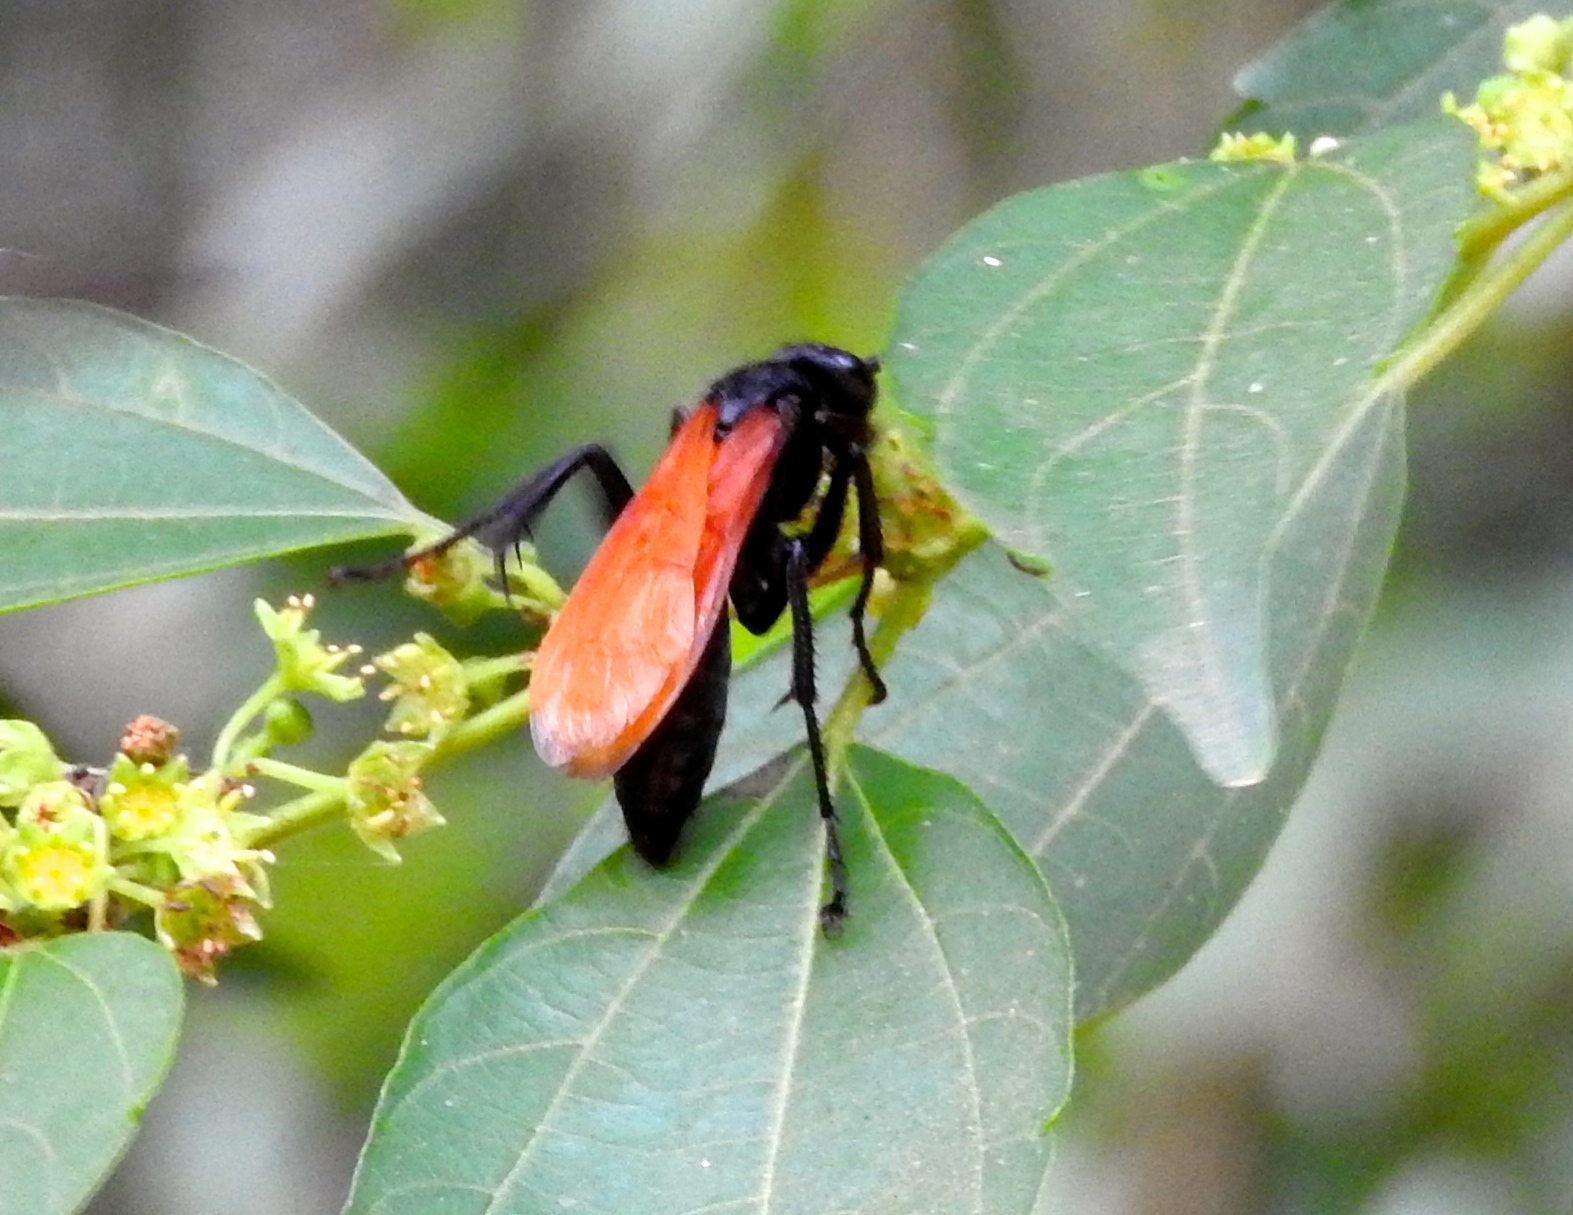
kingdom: Animalia
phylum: Arthropoda
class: Insecta
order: Hymenoptera
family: Pompilidae
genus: Pepsis
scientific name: Pepsis
